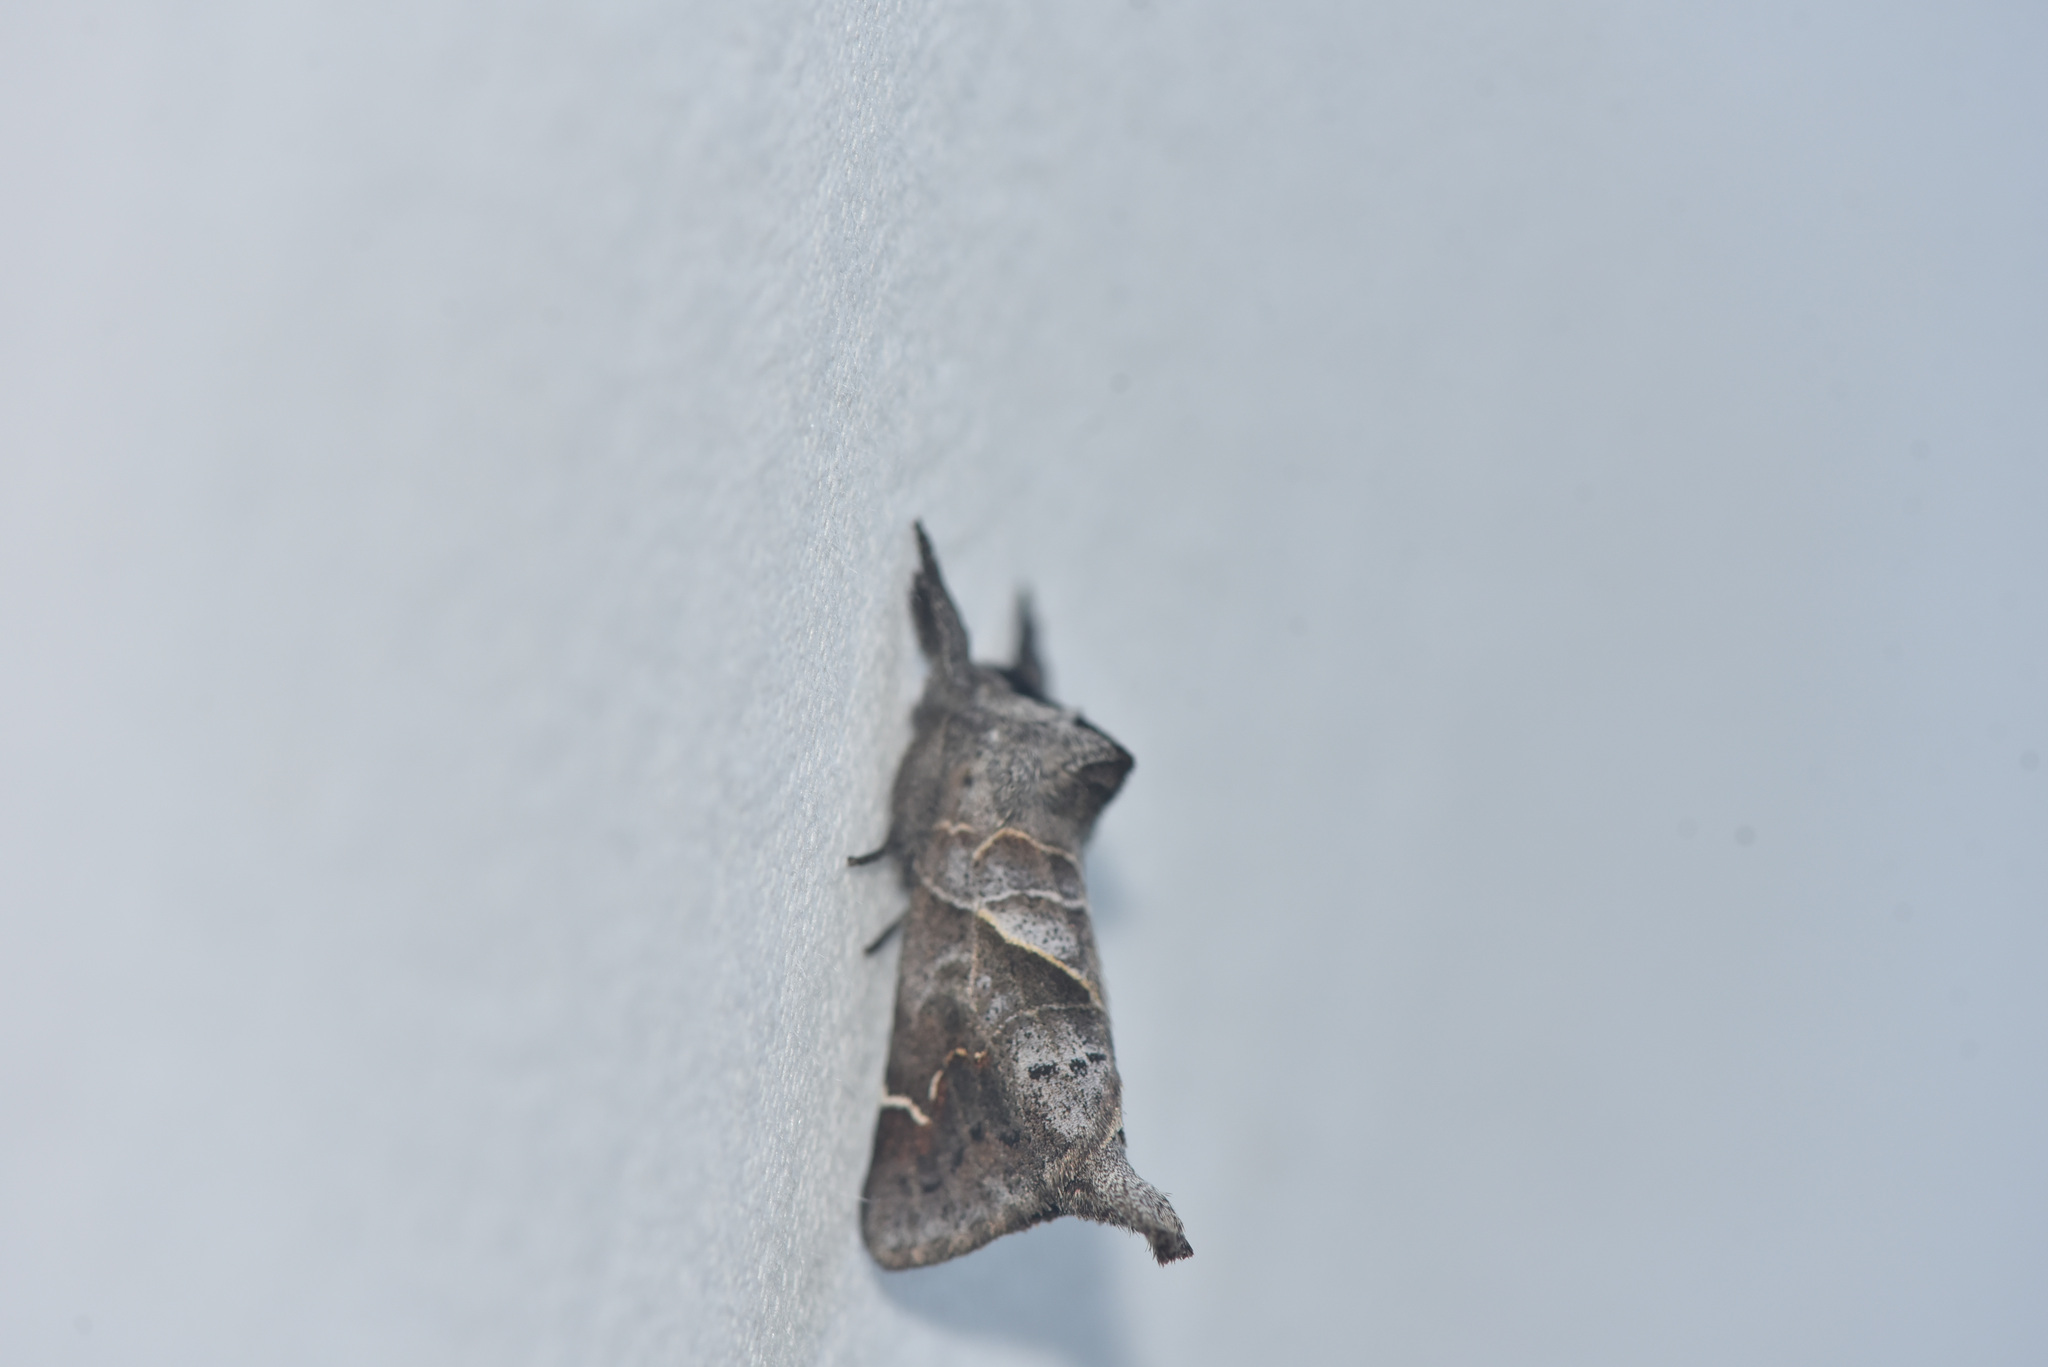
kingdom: Animalia
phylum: Arthropoda
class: Insecta
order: Lepidoptera
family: Notodontidae
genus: Clostera
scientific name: Clostera apicalis
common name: Apical prominent
